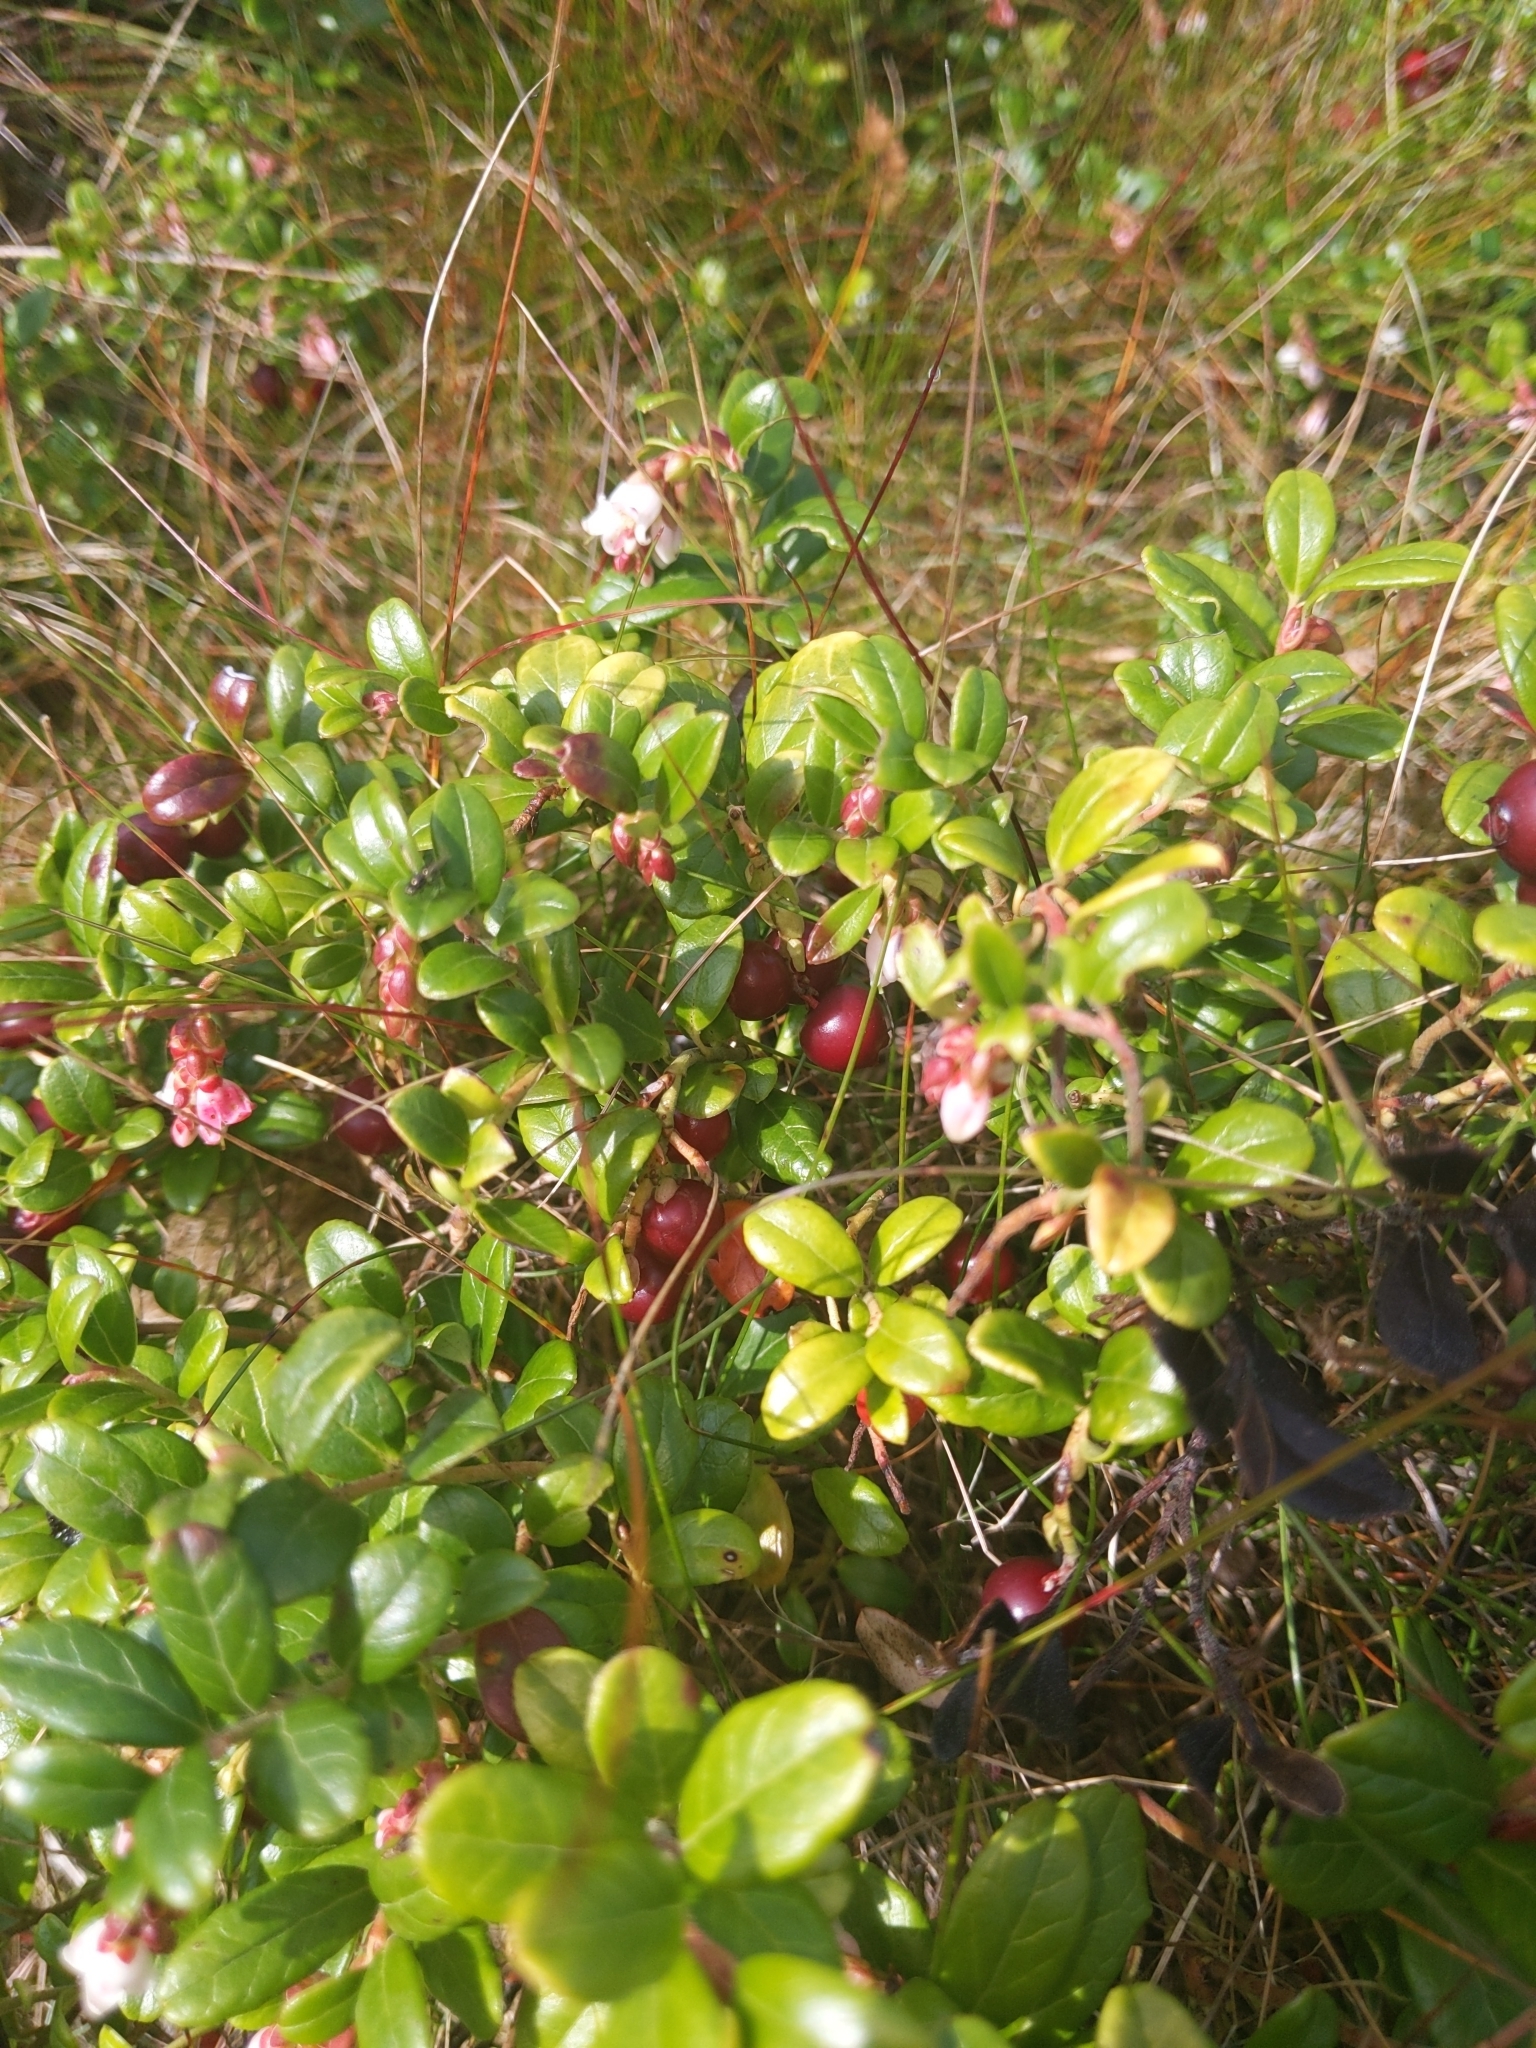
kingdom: Plantae
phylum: Tracheophyta
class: Magnoliopsida
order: Ericales
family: Ericaceae
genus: Vaccinium
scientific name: Vaccinium vitis-idaea
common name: Cowberry
